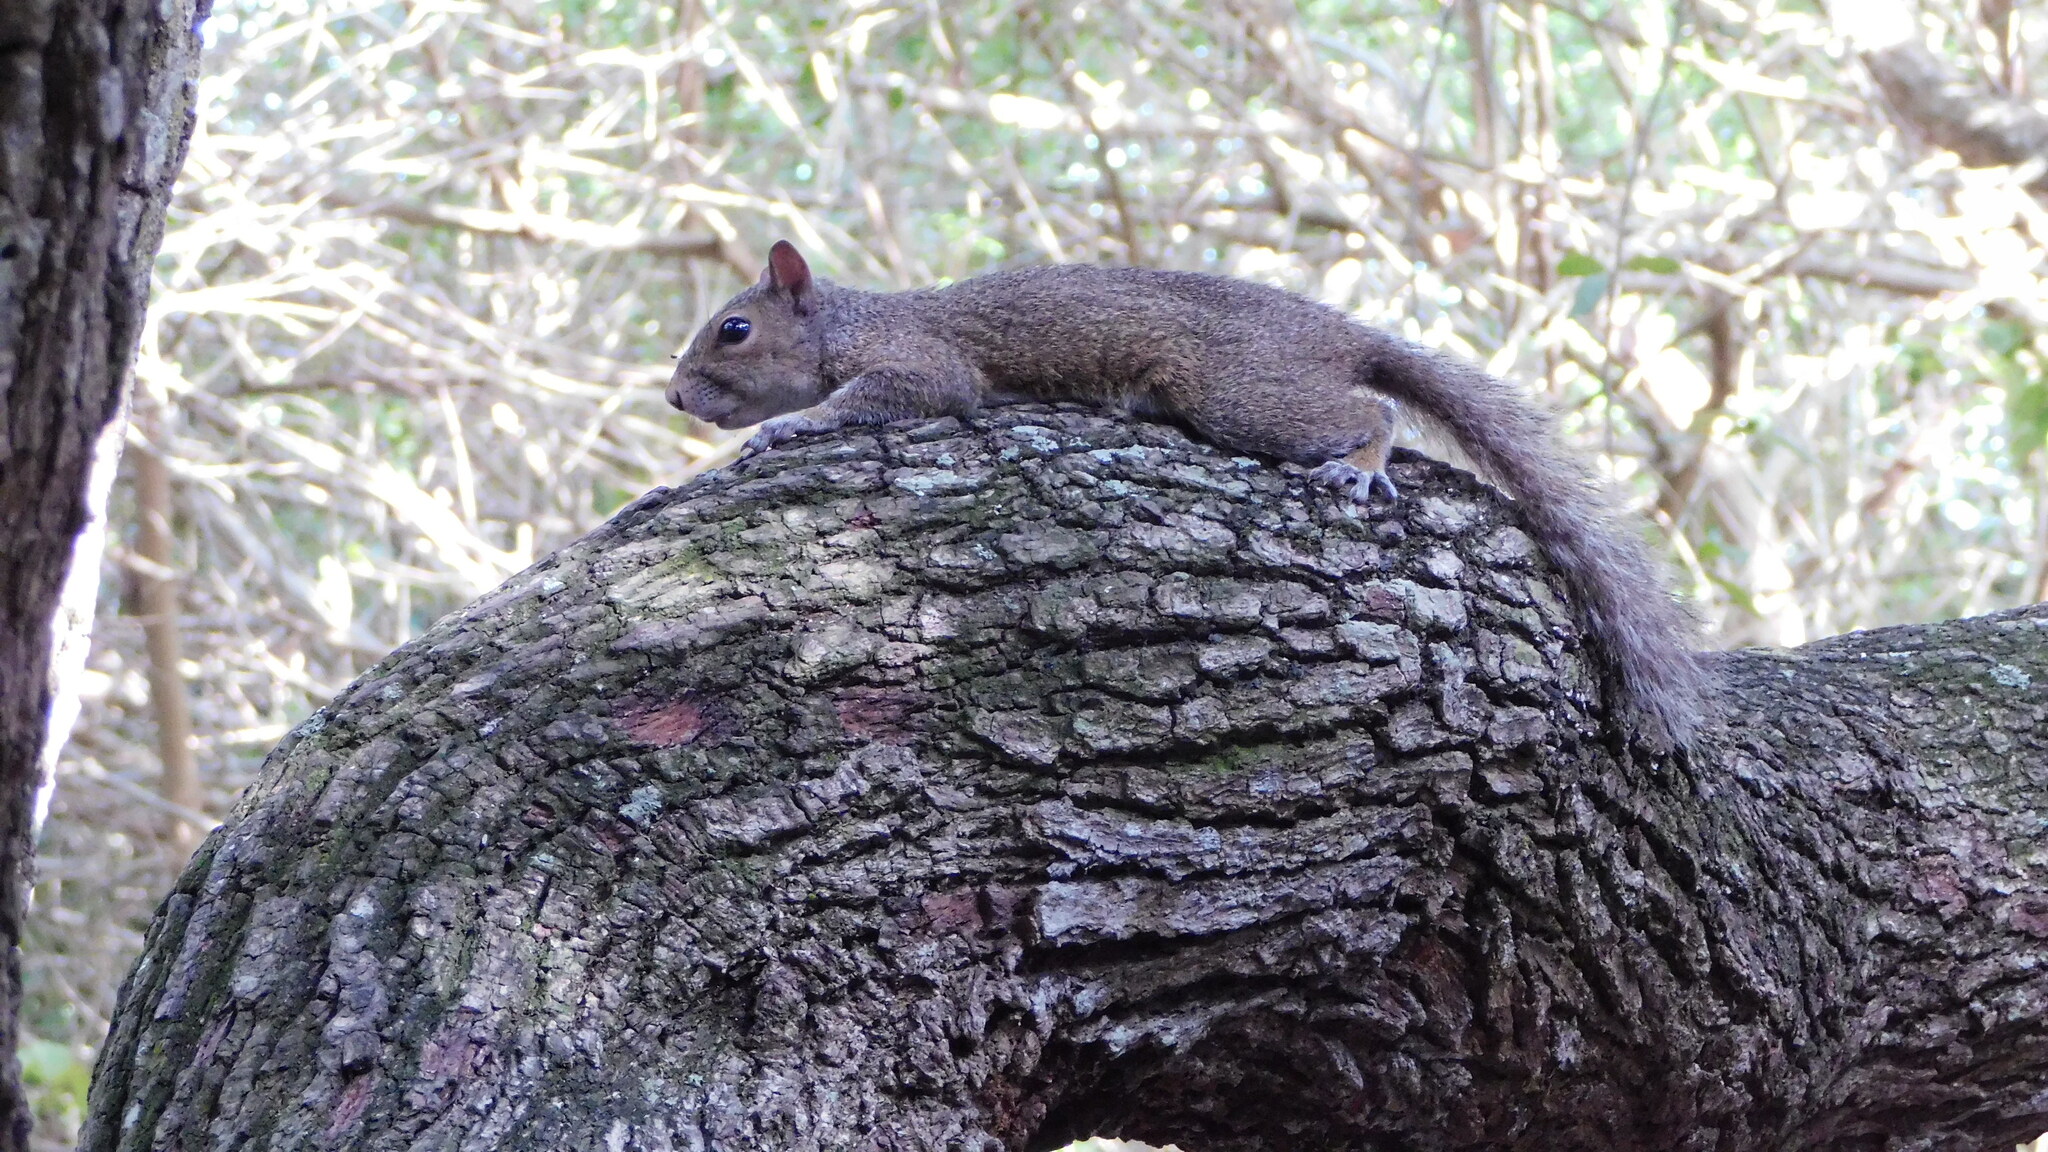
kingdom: Animalia
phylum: Chordata
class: Mammalia
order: Rodentia
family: Sciuridae
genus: Sciurus
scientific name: Sciurus carolinensis
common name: Eastern gray squirrel
